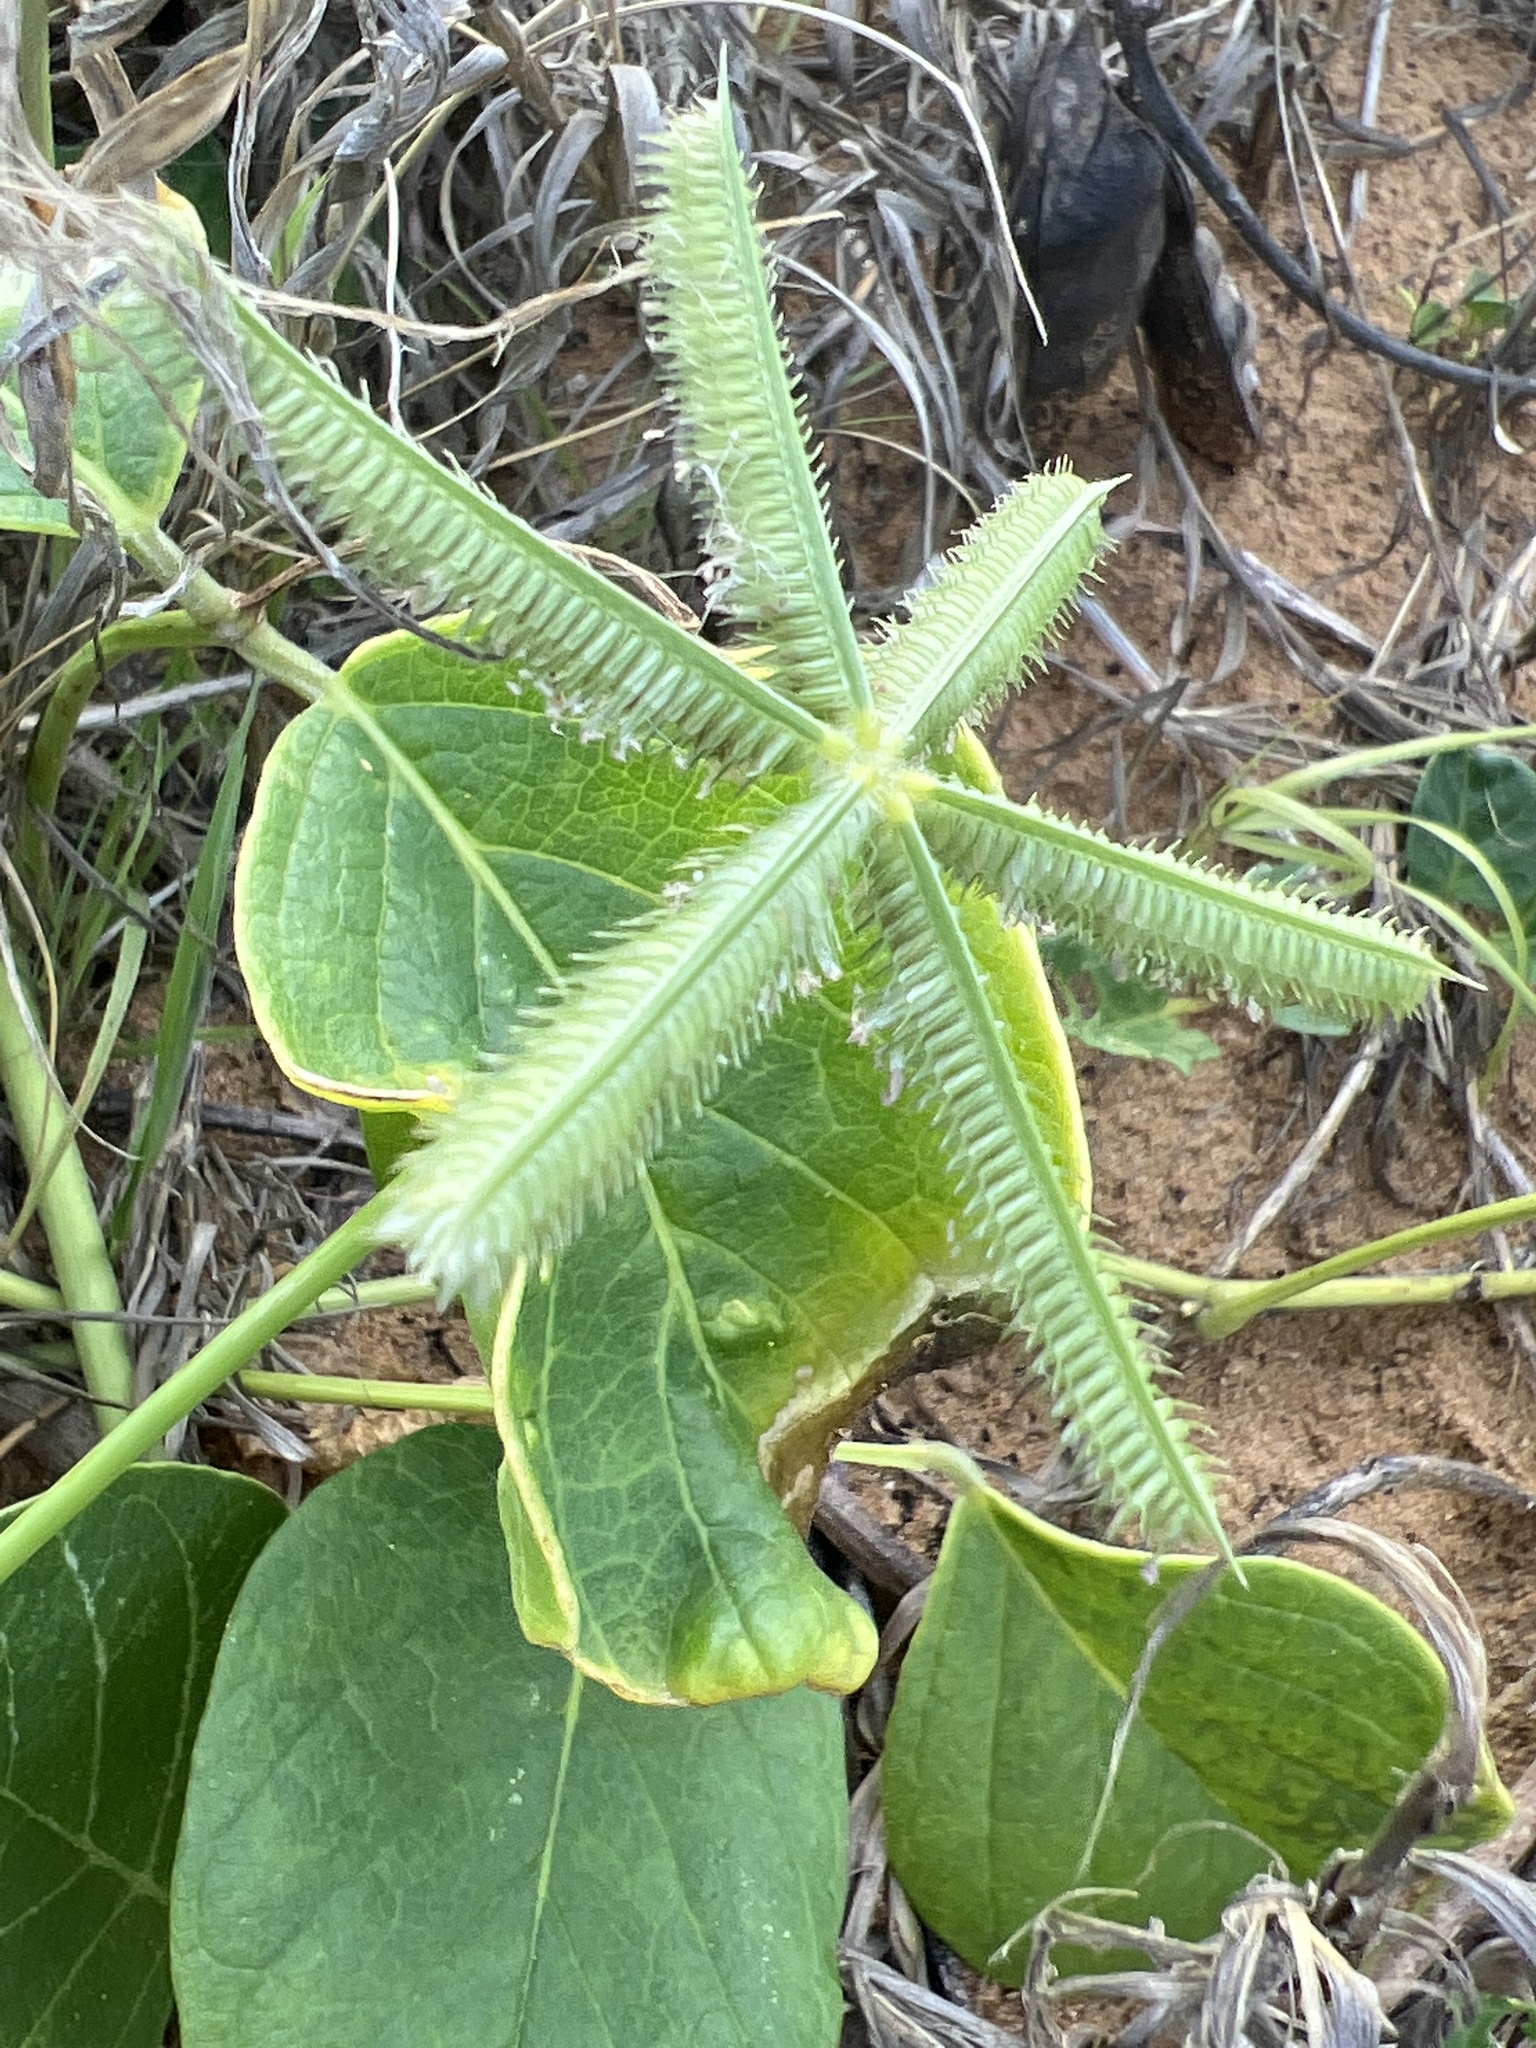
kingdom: Plantae
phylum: Tracheophyta
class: Liliopsida
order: Poales
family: Poaceae
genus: Dactyloctenium
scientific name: Dactyloctenium aegyptium
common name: Egyptian grass
